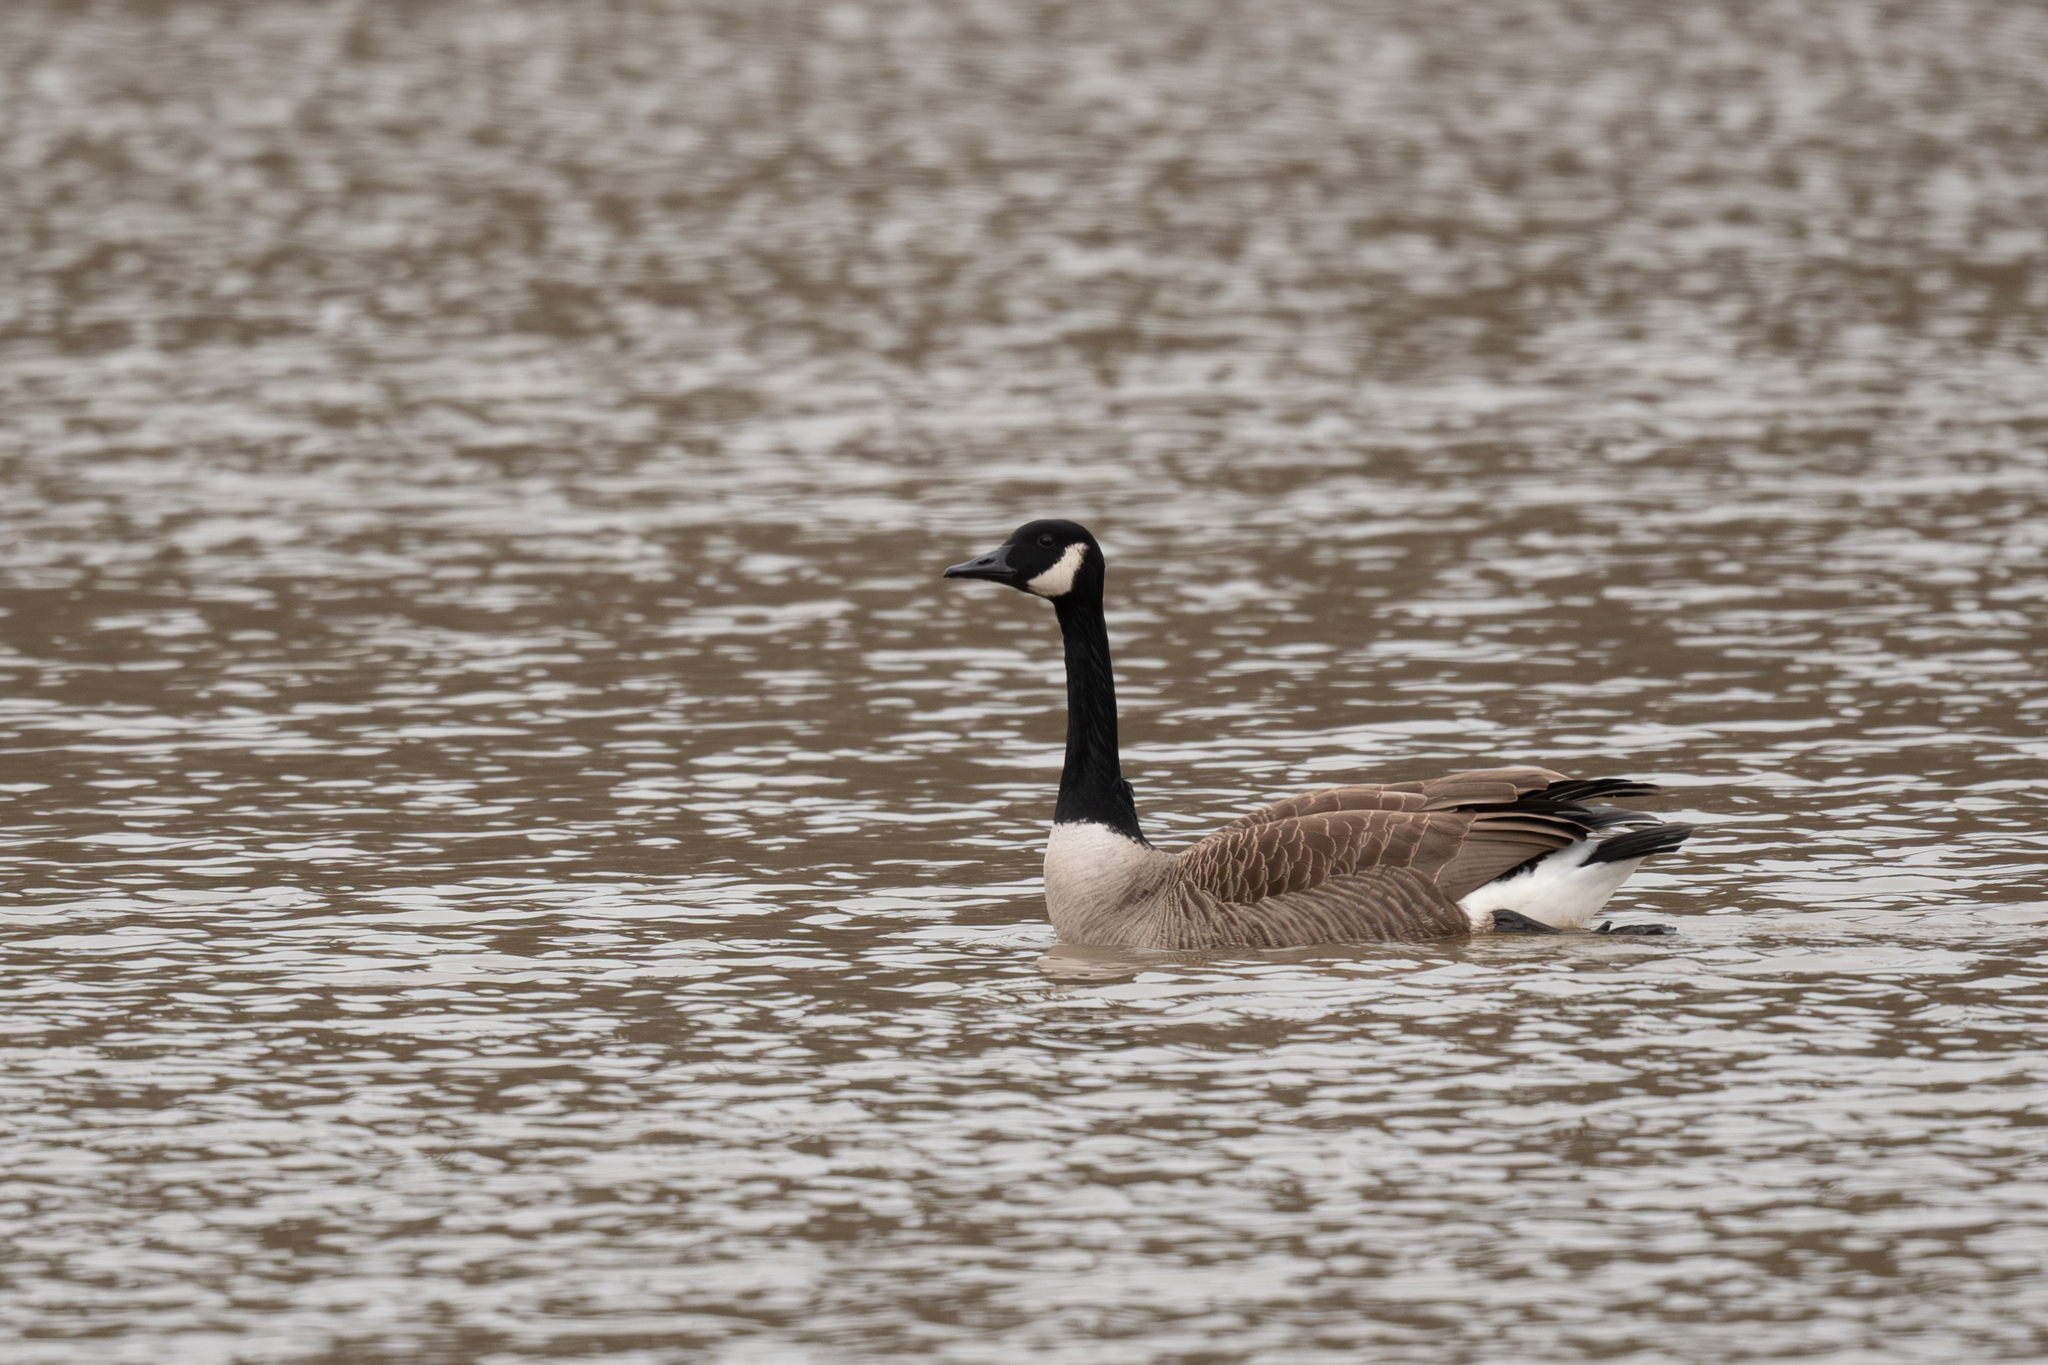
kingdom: Animalia
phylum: Chordata
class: Aves
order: Anseriformes
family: Anatidae
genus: Branta
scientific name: Branta canadensis
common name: Canada goose
